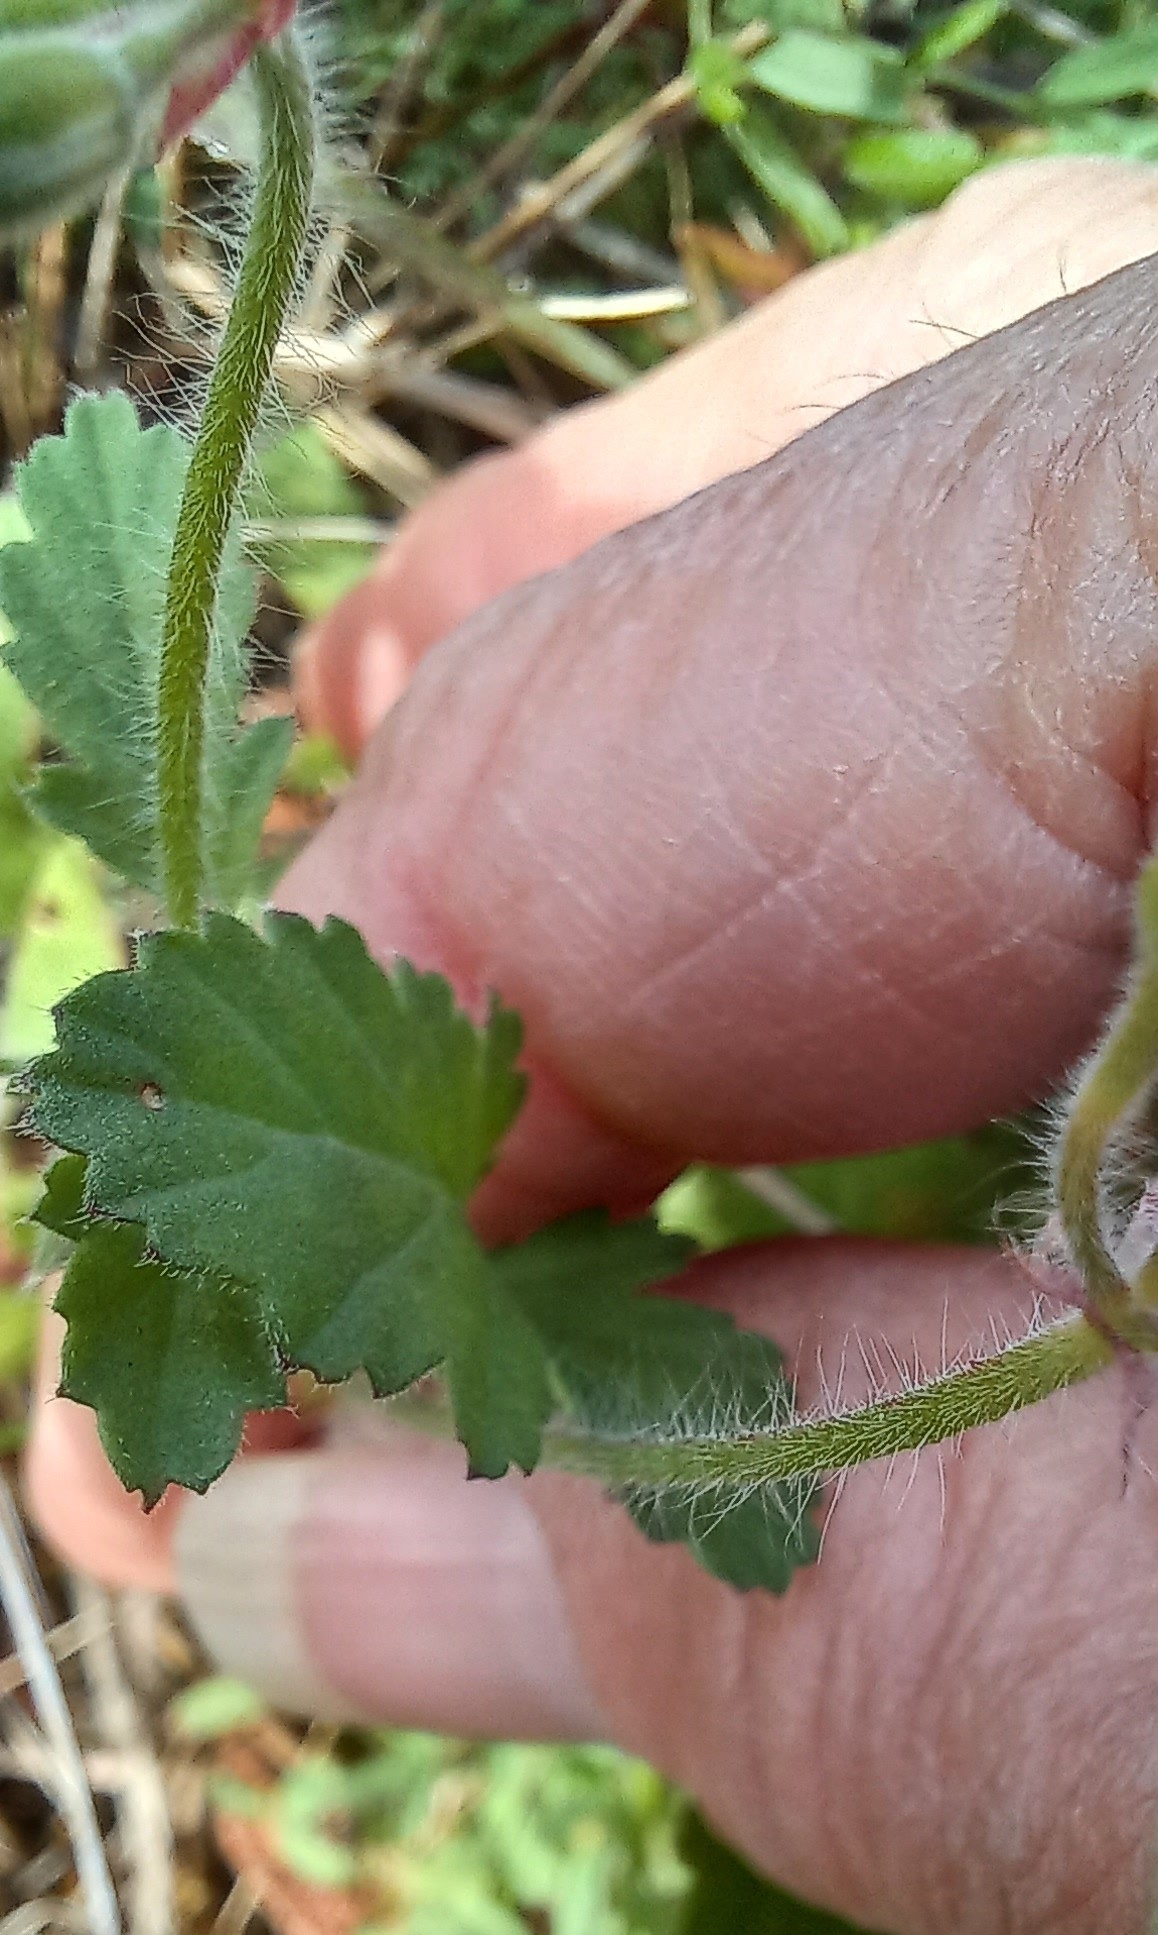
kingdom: Plantae
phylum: Tracheophyta
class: Magnoliopsida
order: Geraniales
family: Geraniaceae
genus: Pelargonium
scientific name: Pelargonium althaeoides
